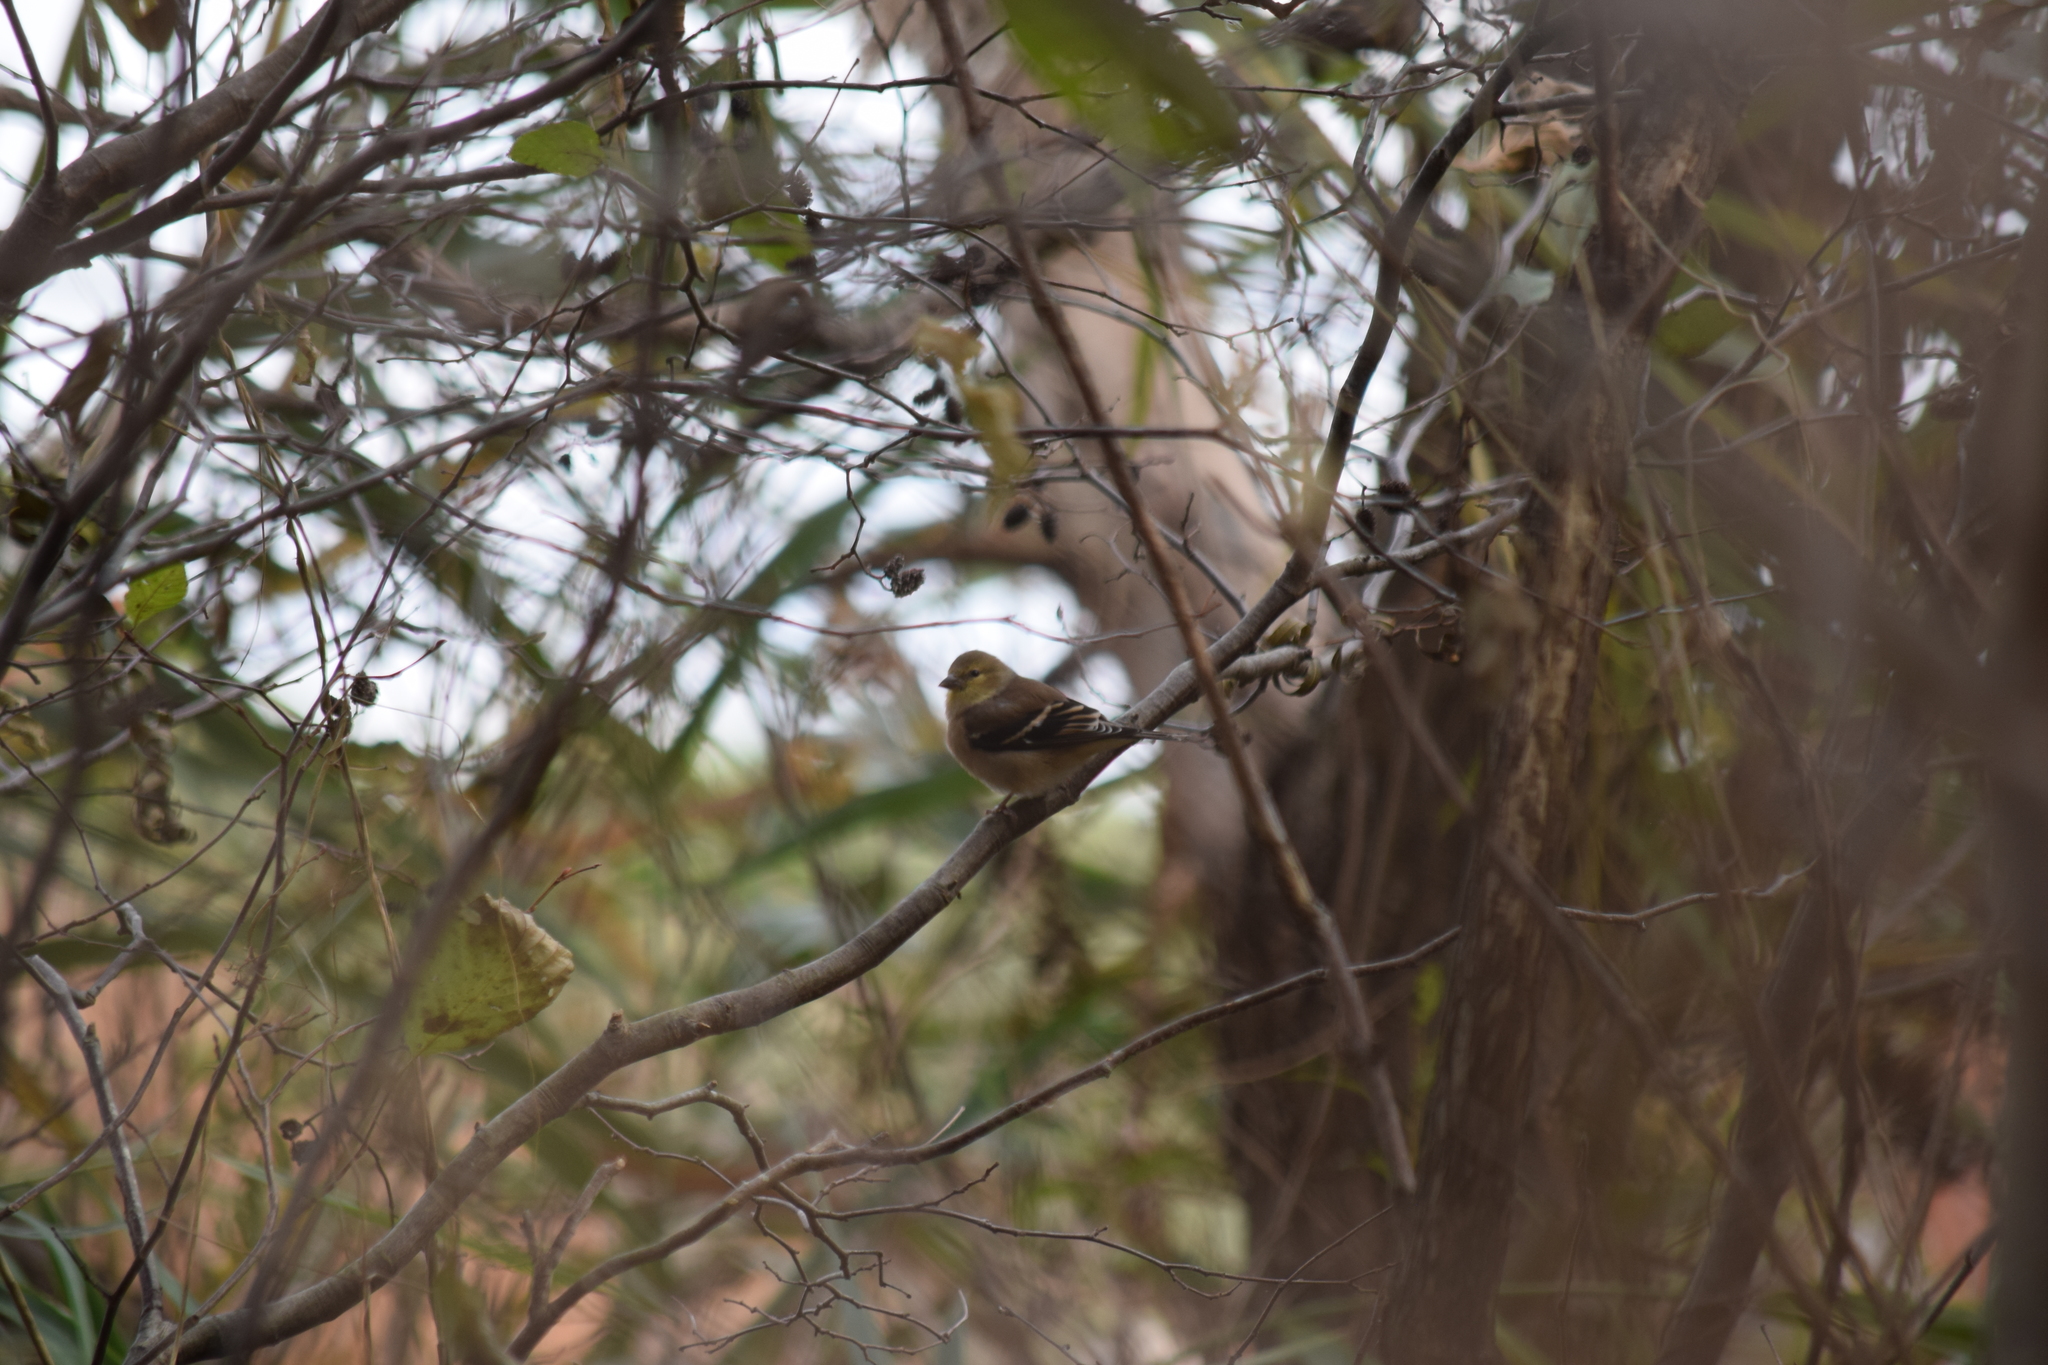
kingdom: Animalia
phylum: Chordata
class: Aves
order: Passeriformes
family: Fringillidae
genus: Spinus
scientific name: Spinus tristis
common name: American goldfinch
